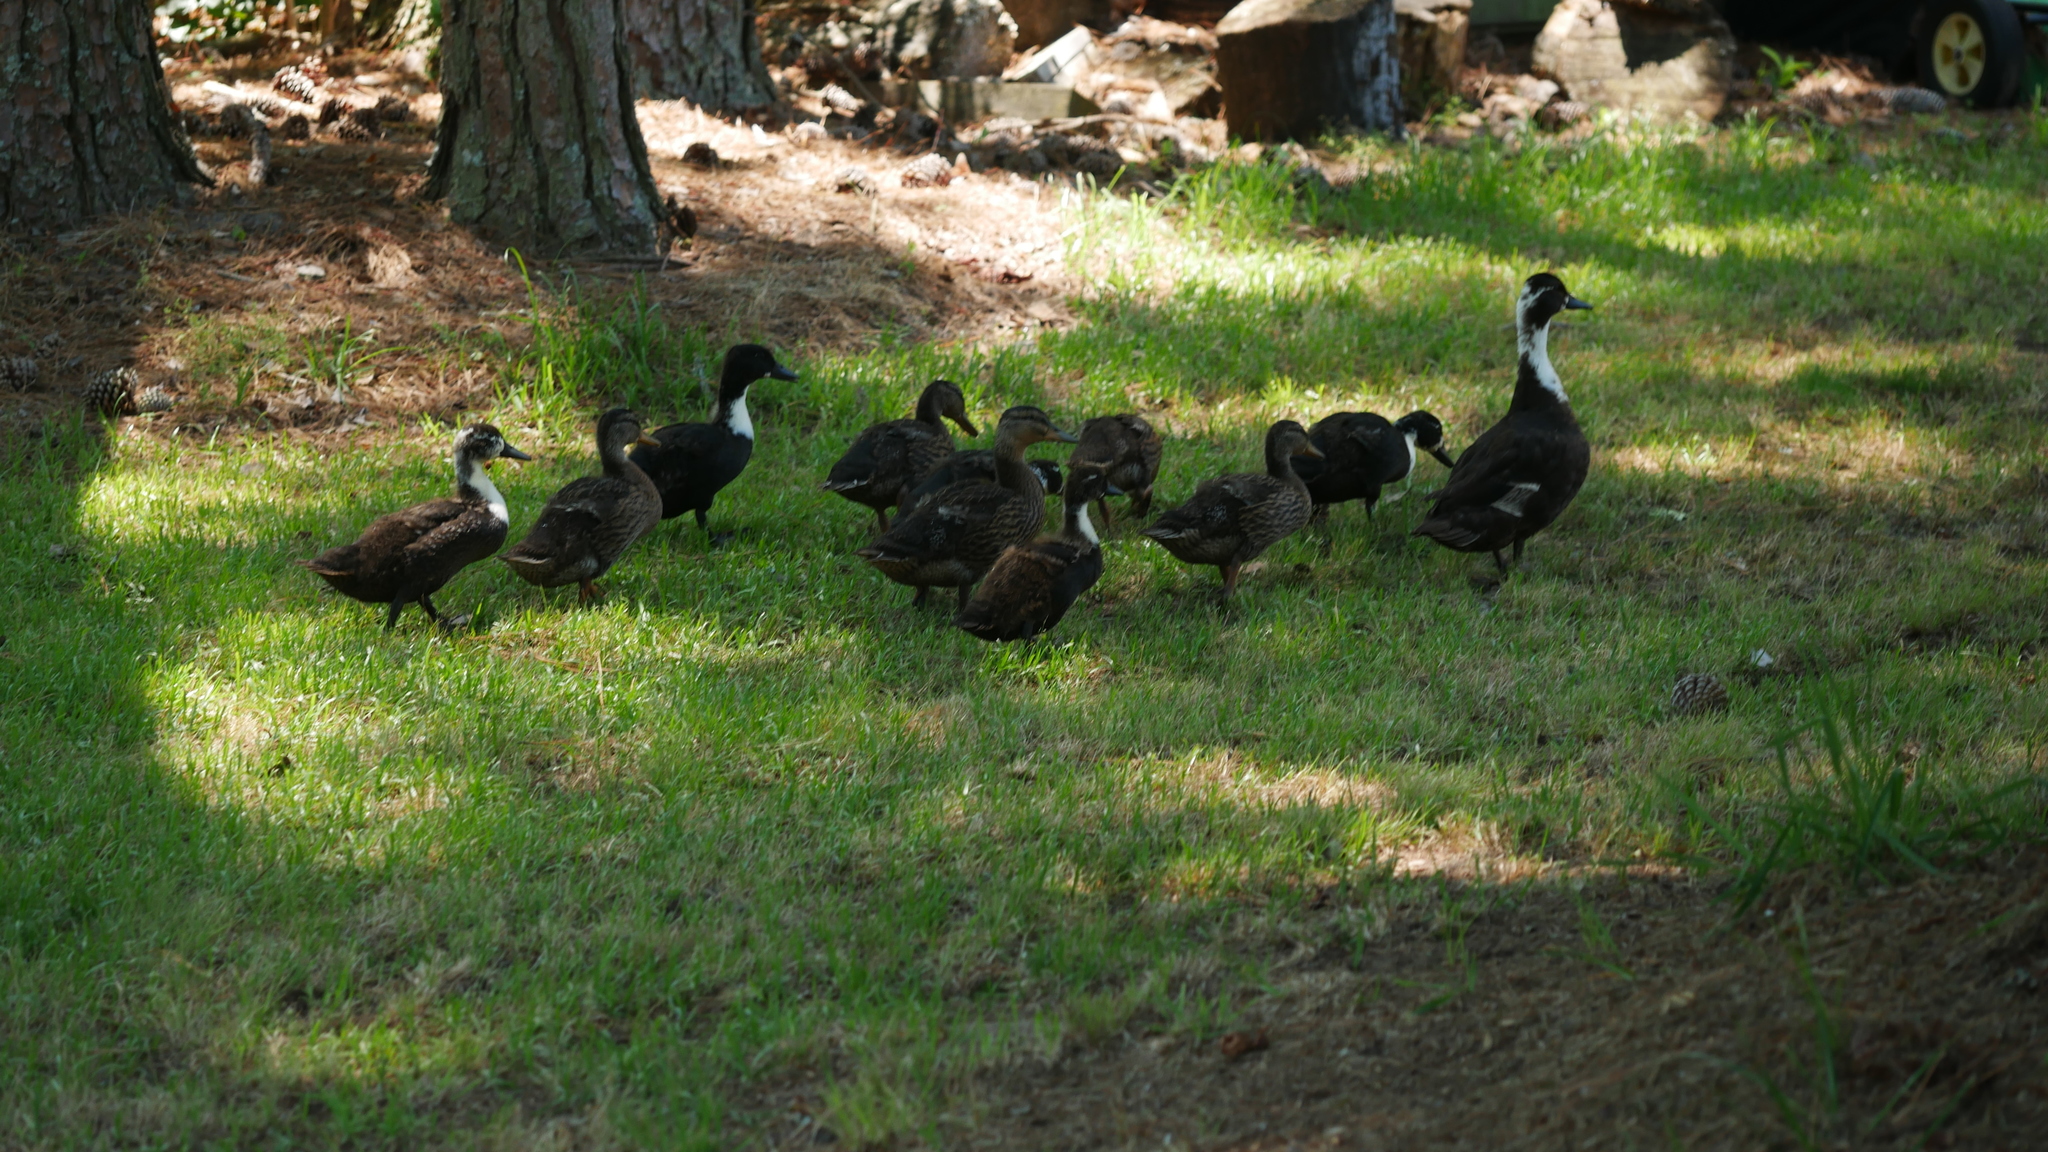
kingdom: Animalia
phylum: Chordata
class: Aves
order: Anseriformes
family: Anatidae
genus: Anas
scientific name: Anas platyrhynchos
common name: Mallard
